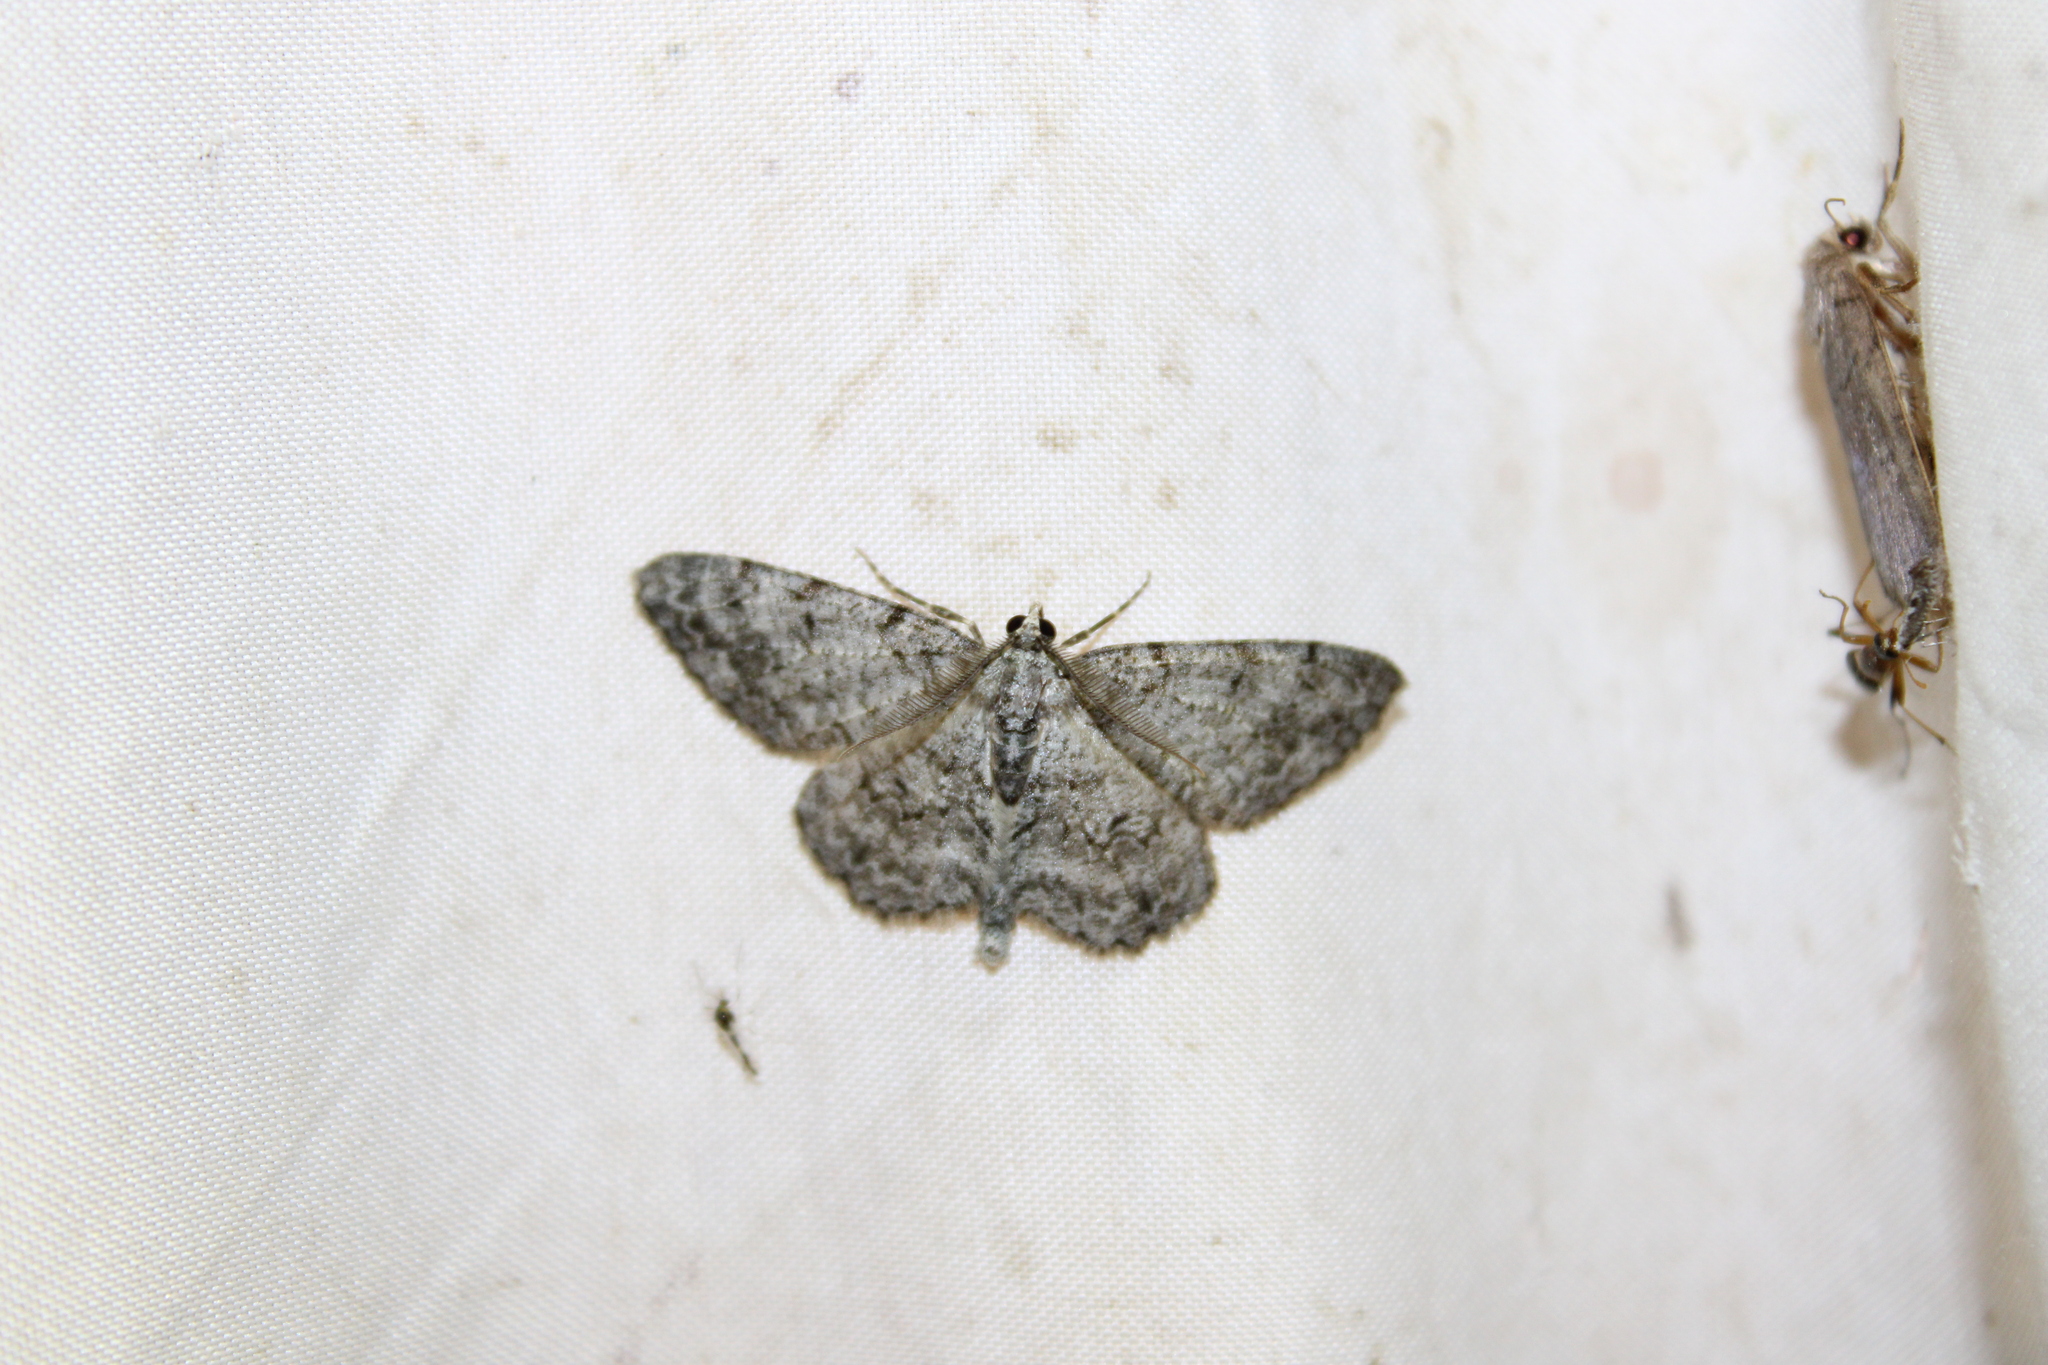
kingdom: Animalia
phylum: Arthropoda
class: Insecta
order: Lepidoptera
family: Geometridae
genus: Protoboarmia
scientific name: Protoboarmia porcelaria
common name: Porcelain gray
